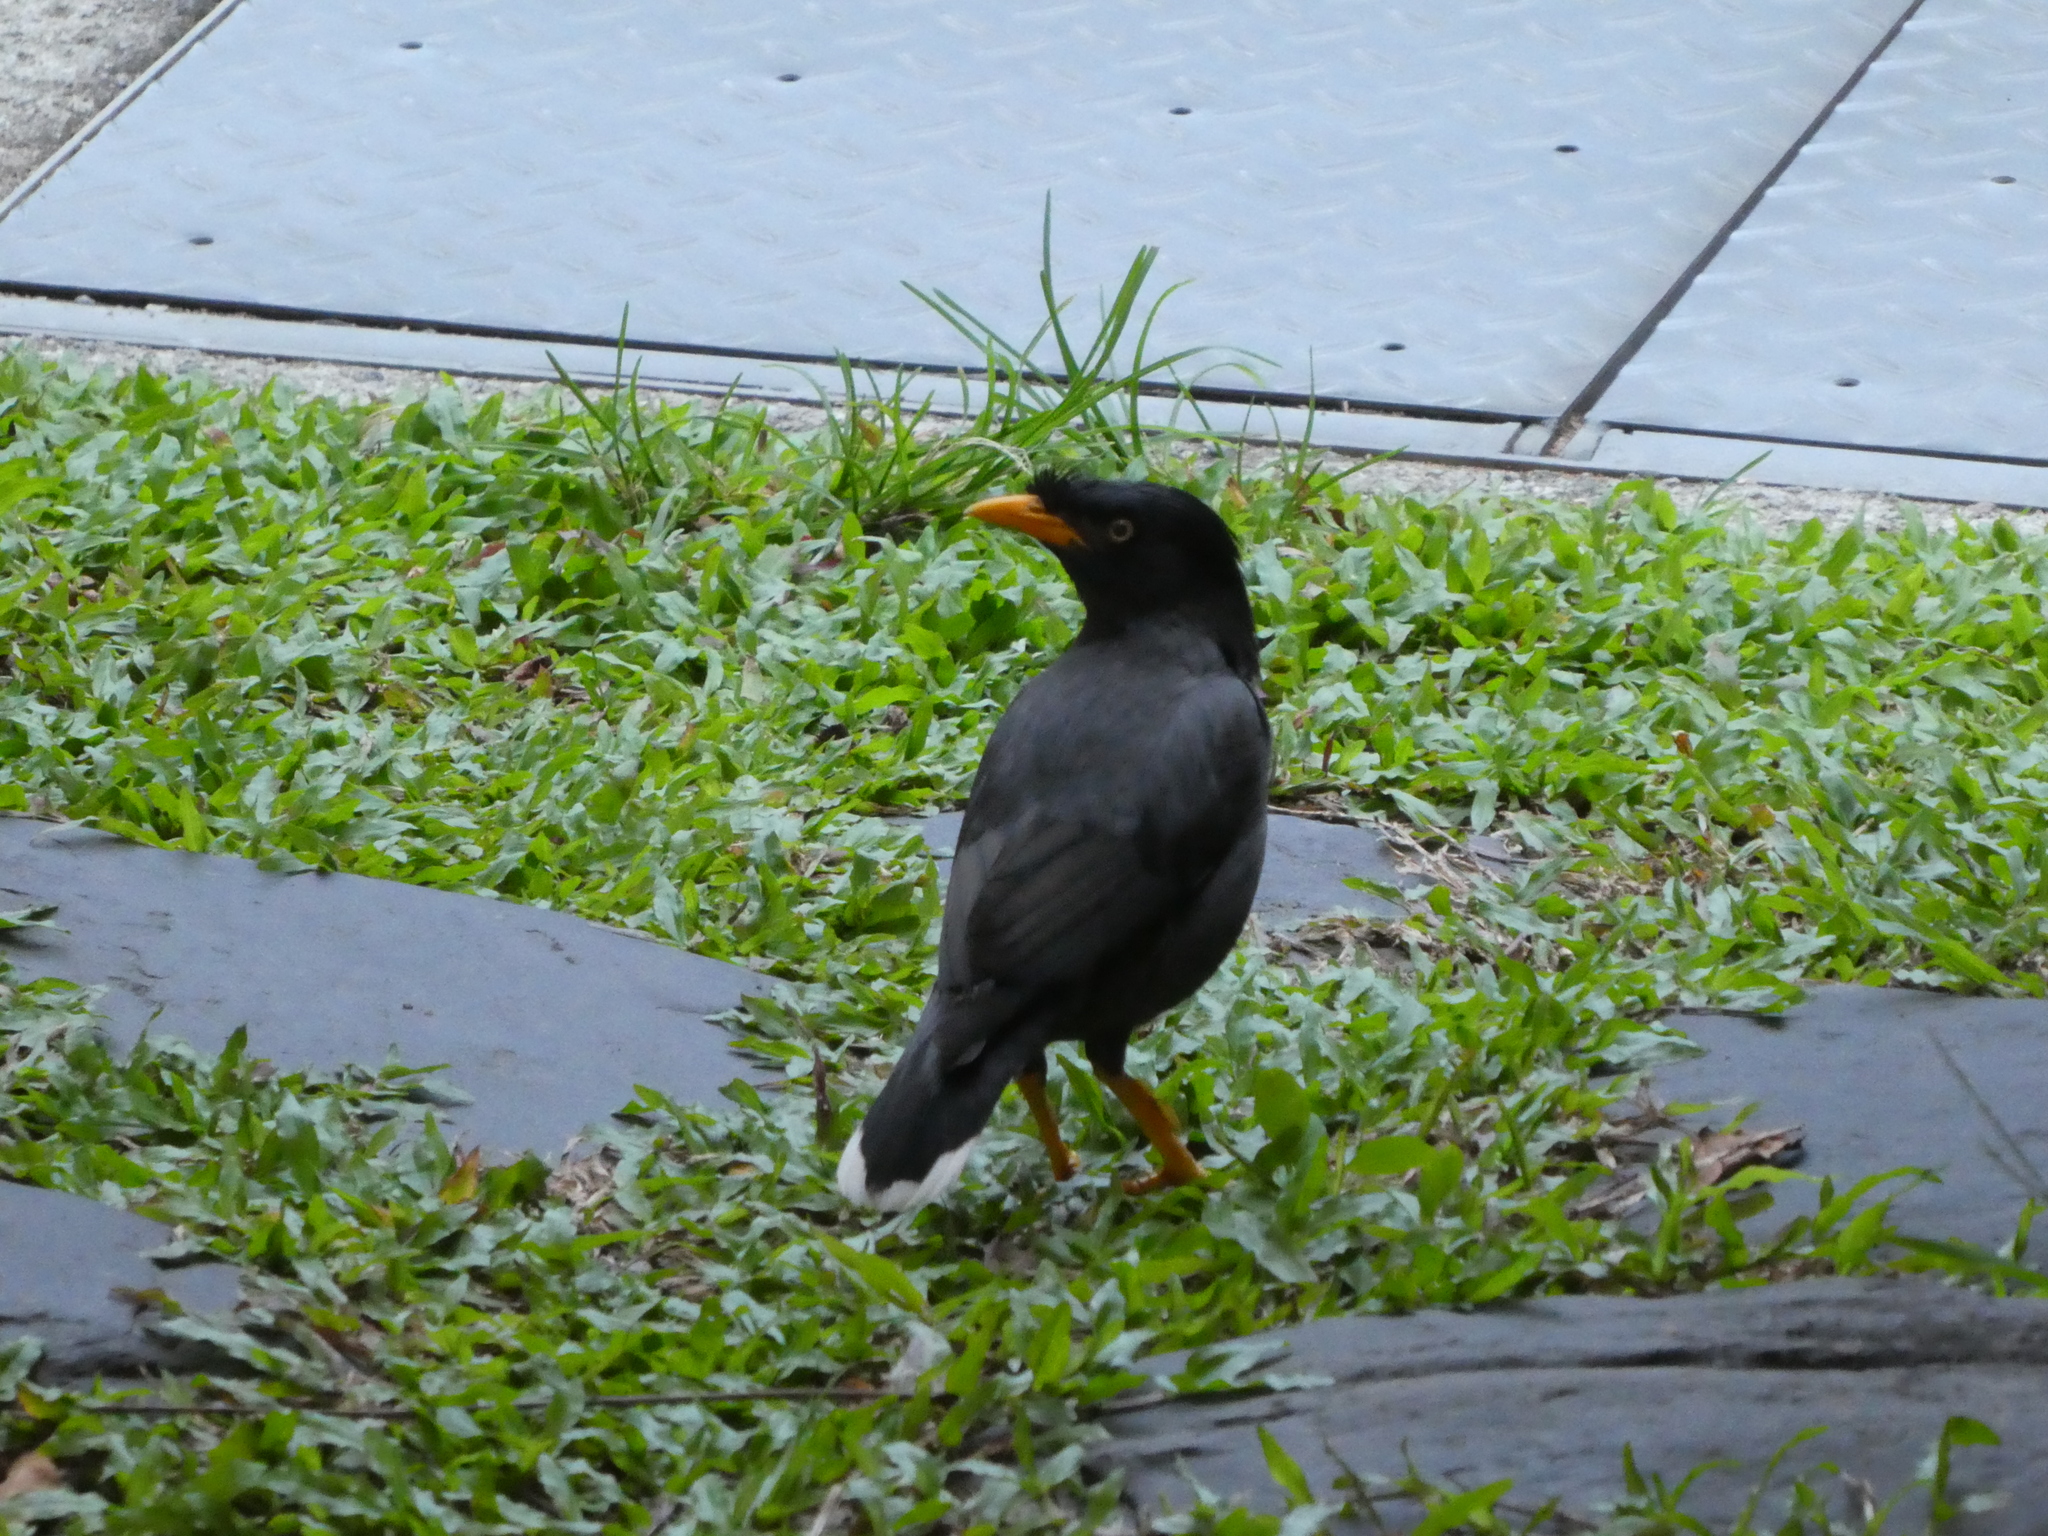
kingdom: Animalia
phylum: Chordata
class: Aves
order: Passeriformes
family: Sturnidae
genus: Acridotheres
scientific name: Acridotheres javanicus
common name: Javan myna
